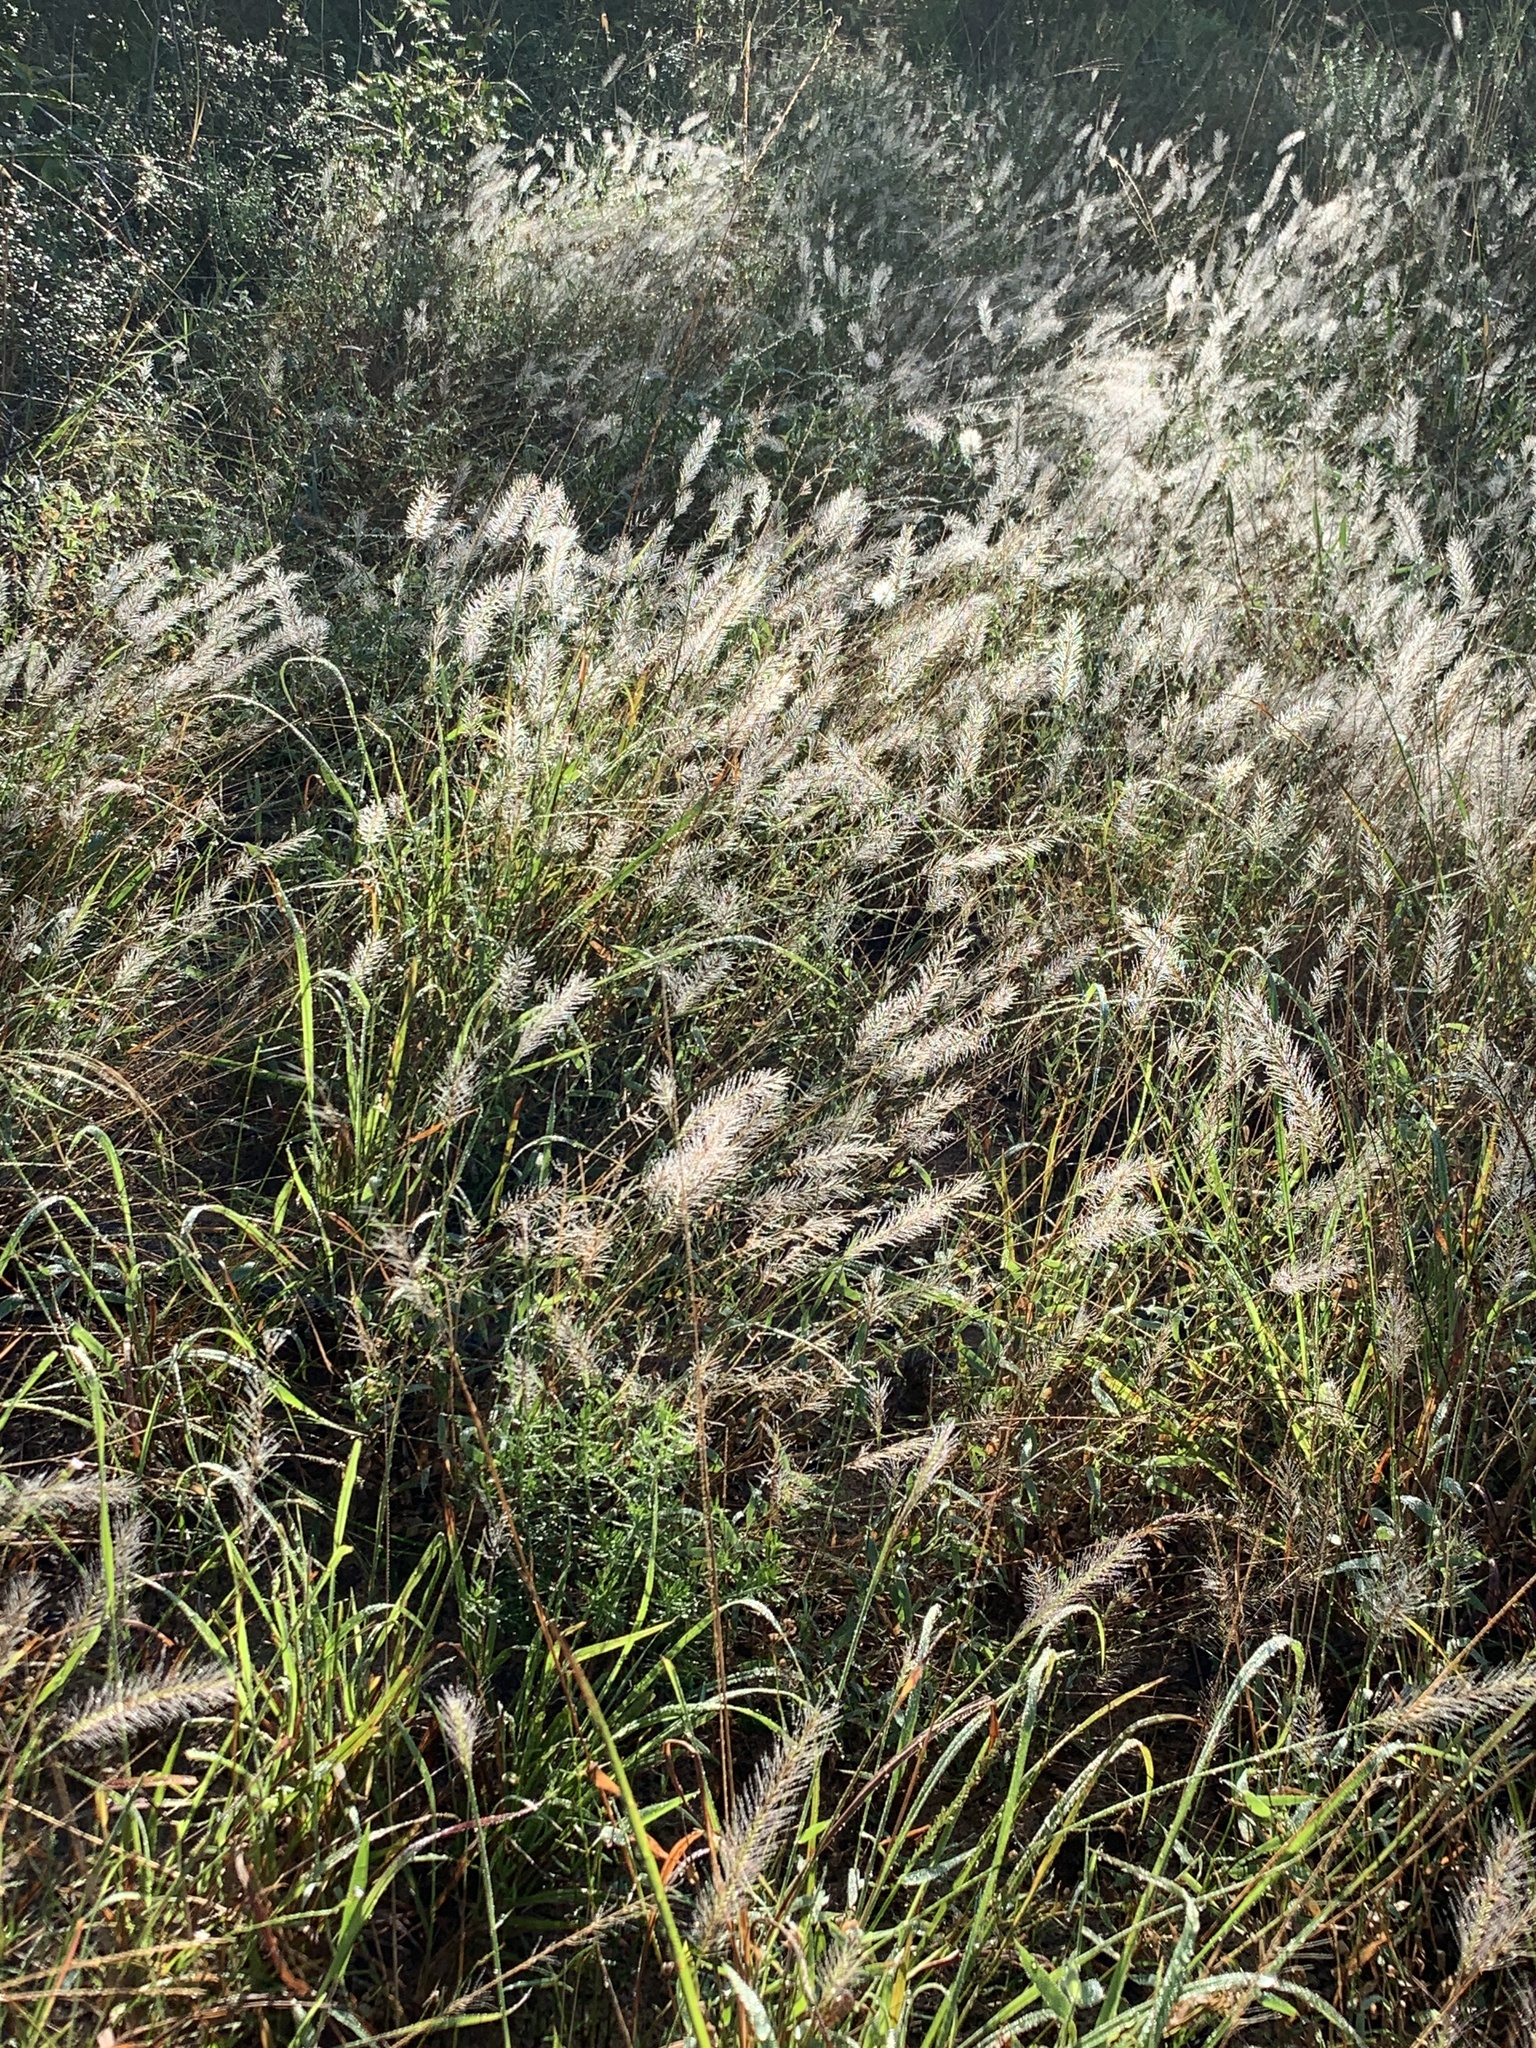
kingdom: Plantae
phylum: Tracheophyta
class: Liliopsida
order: Poales
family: Poaceae
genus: Perotis
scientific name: Perotis patens
